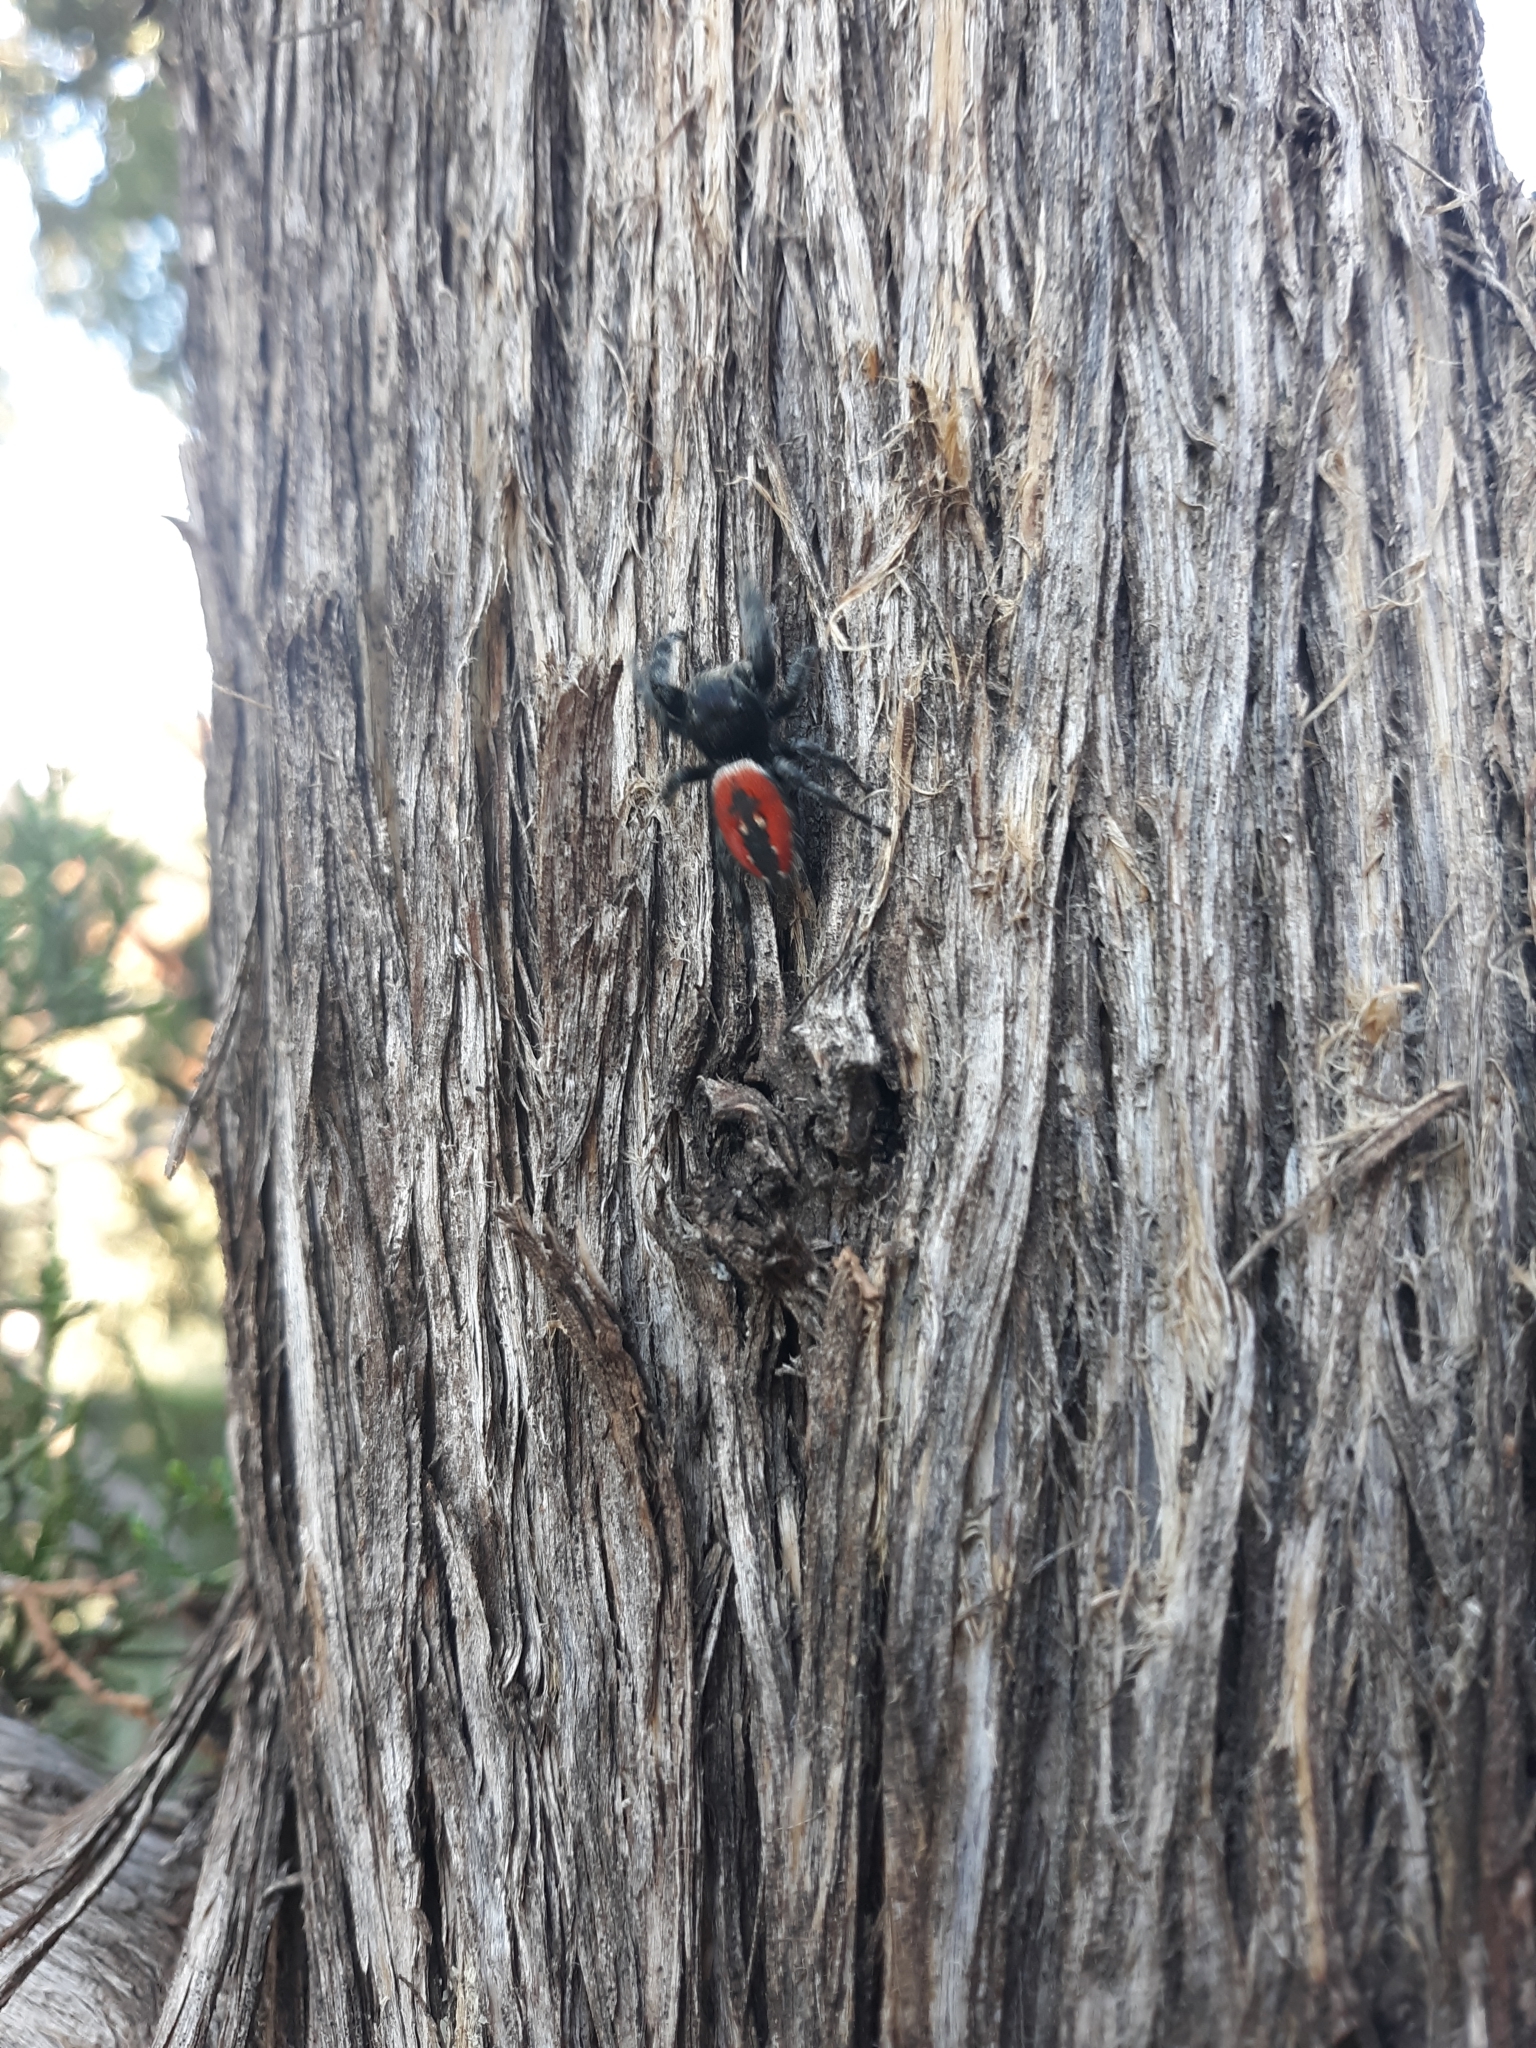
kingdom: Animalia
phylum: Arthropoda
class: Arachnida
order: Araneae
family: Salticidae
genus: Phidippus
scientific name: Phidippus carneus
